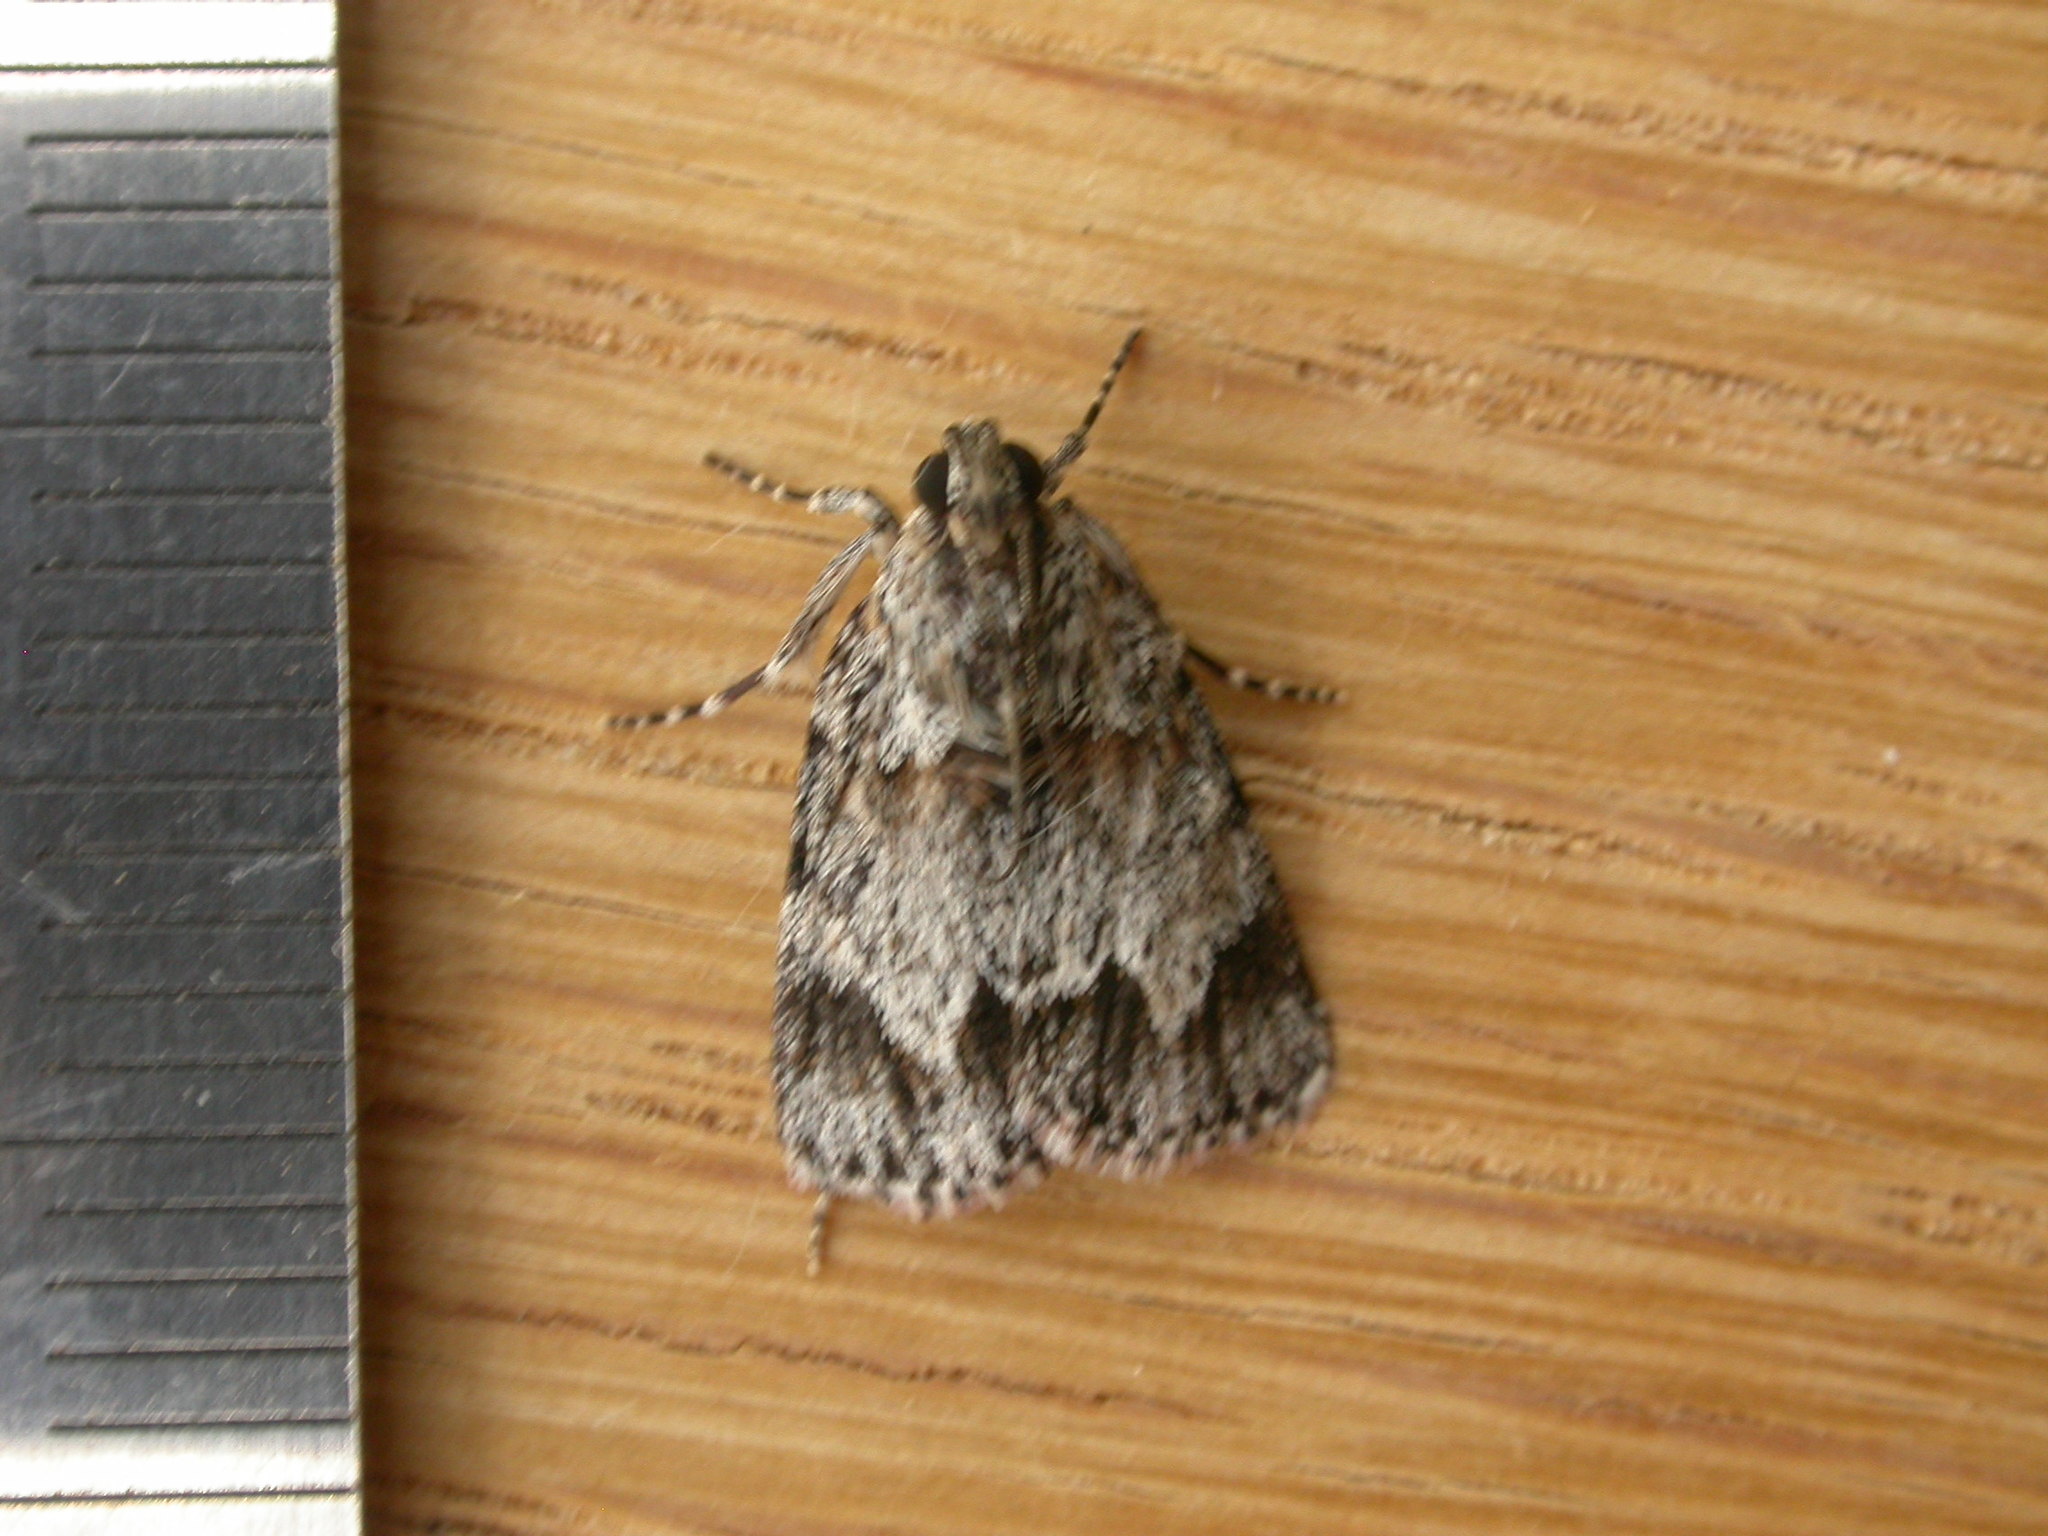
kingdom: Animalia
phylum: Arthropoda
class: Insecta
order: Lepidoptera
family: Pyralidae
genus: Spectrotrota
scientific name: Spectrotrota fimbrialis
